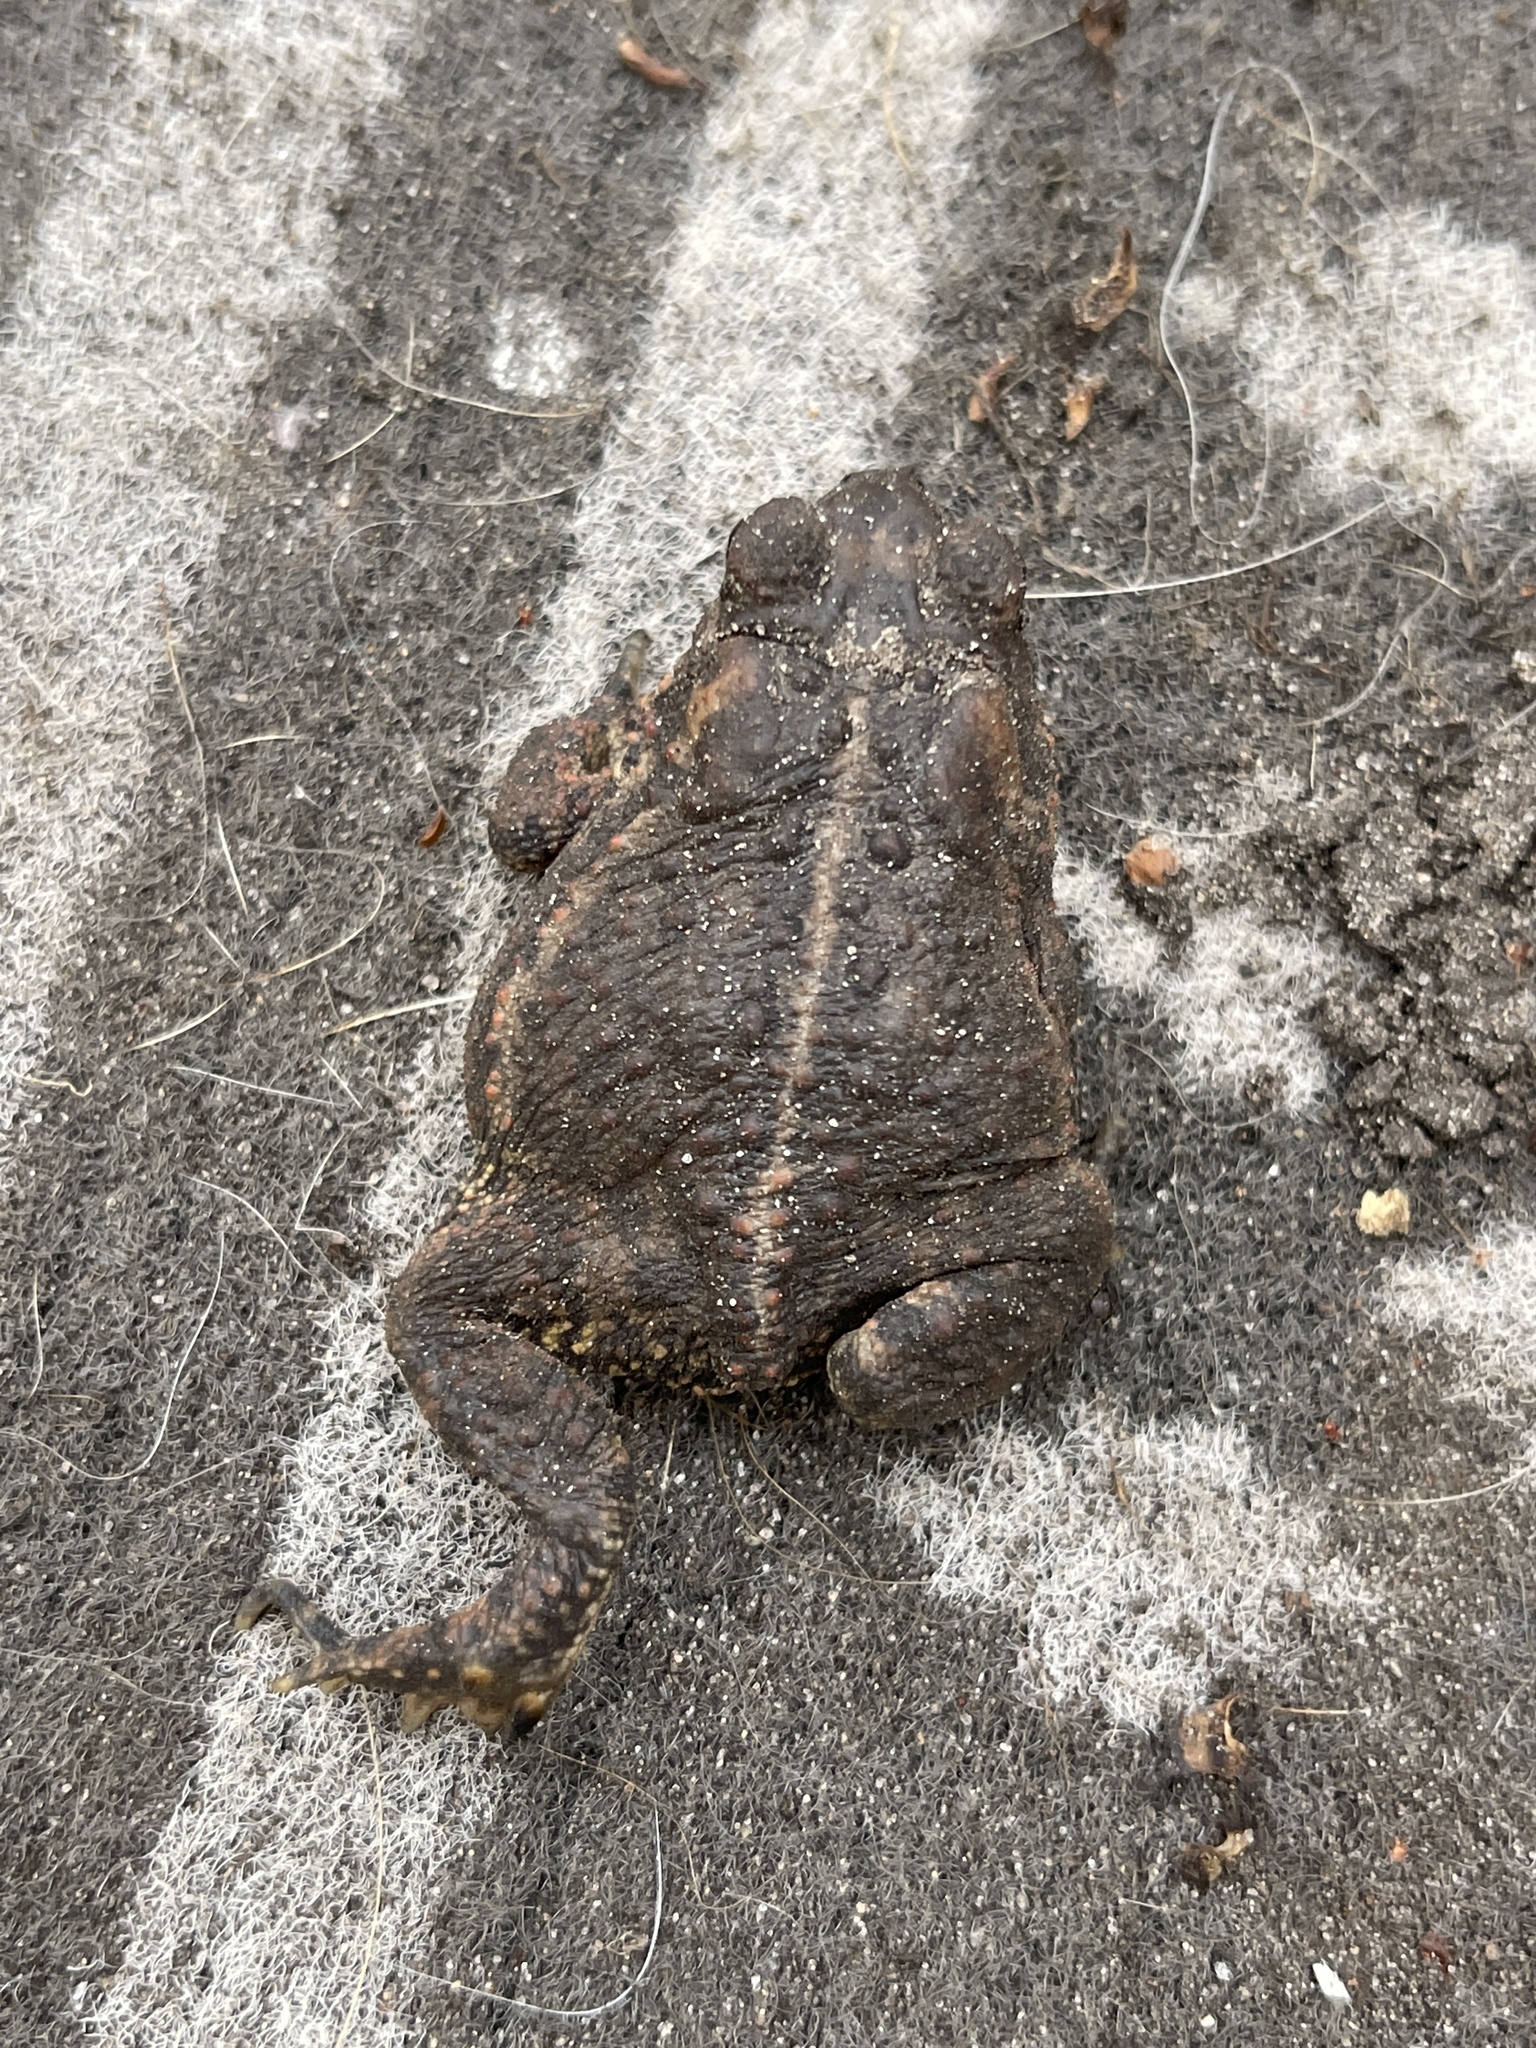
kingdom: Animalia
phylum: Chordata
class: Amphibia
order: Anura
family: Bufonidae
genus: Anaxyrus
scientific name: Anaxyrus americanus
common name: American toad
